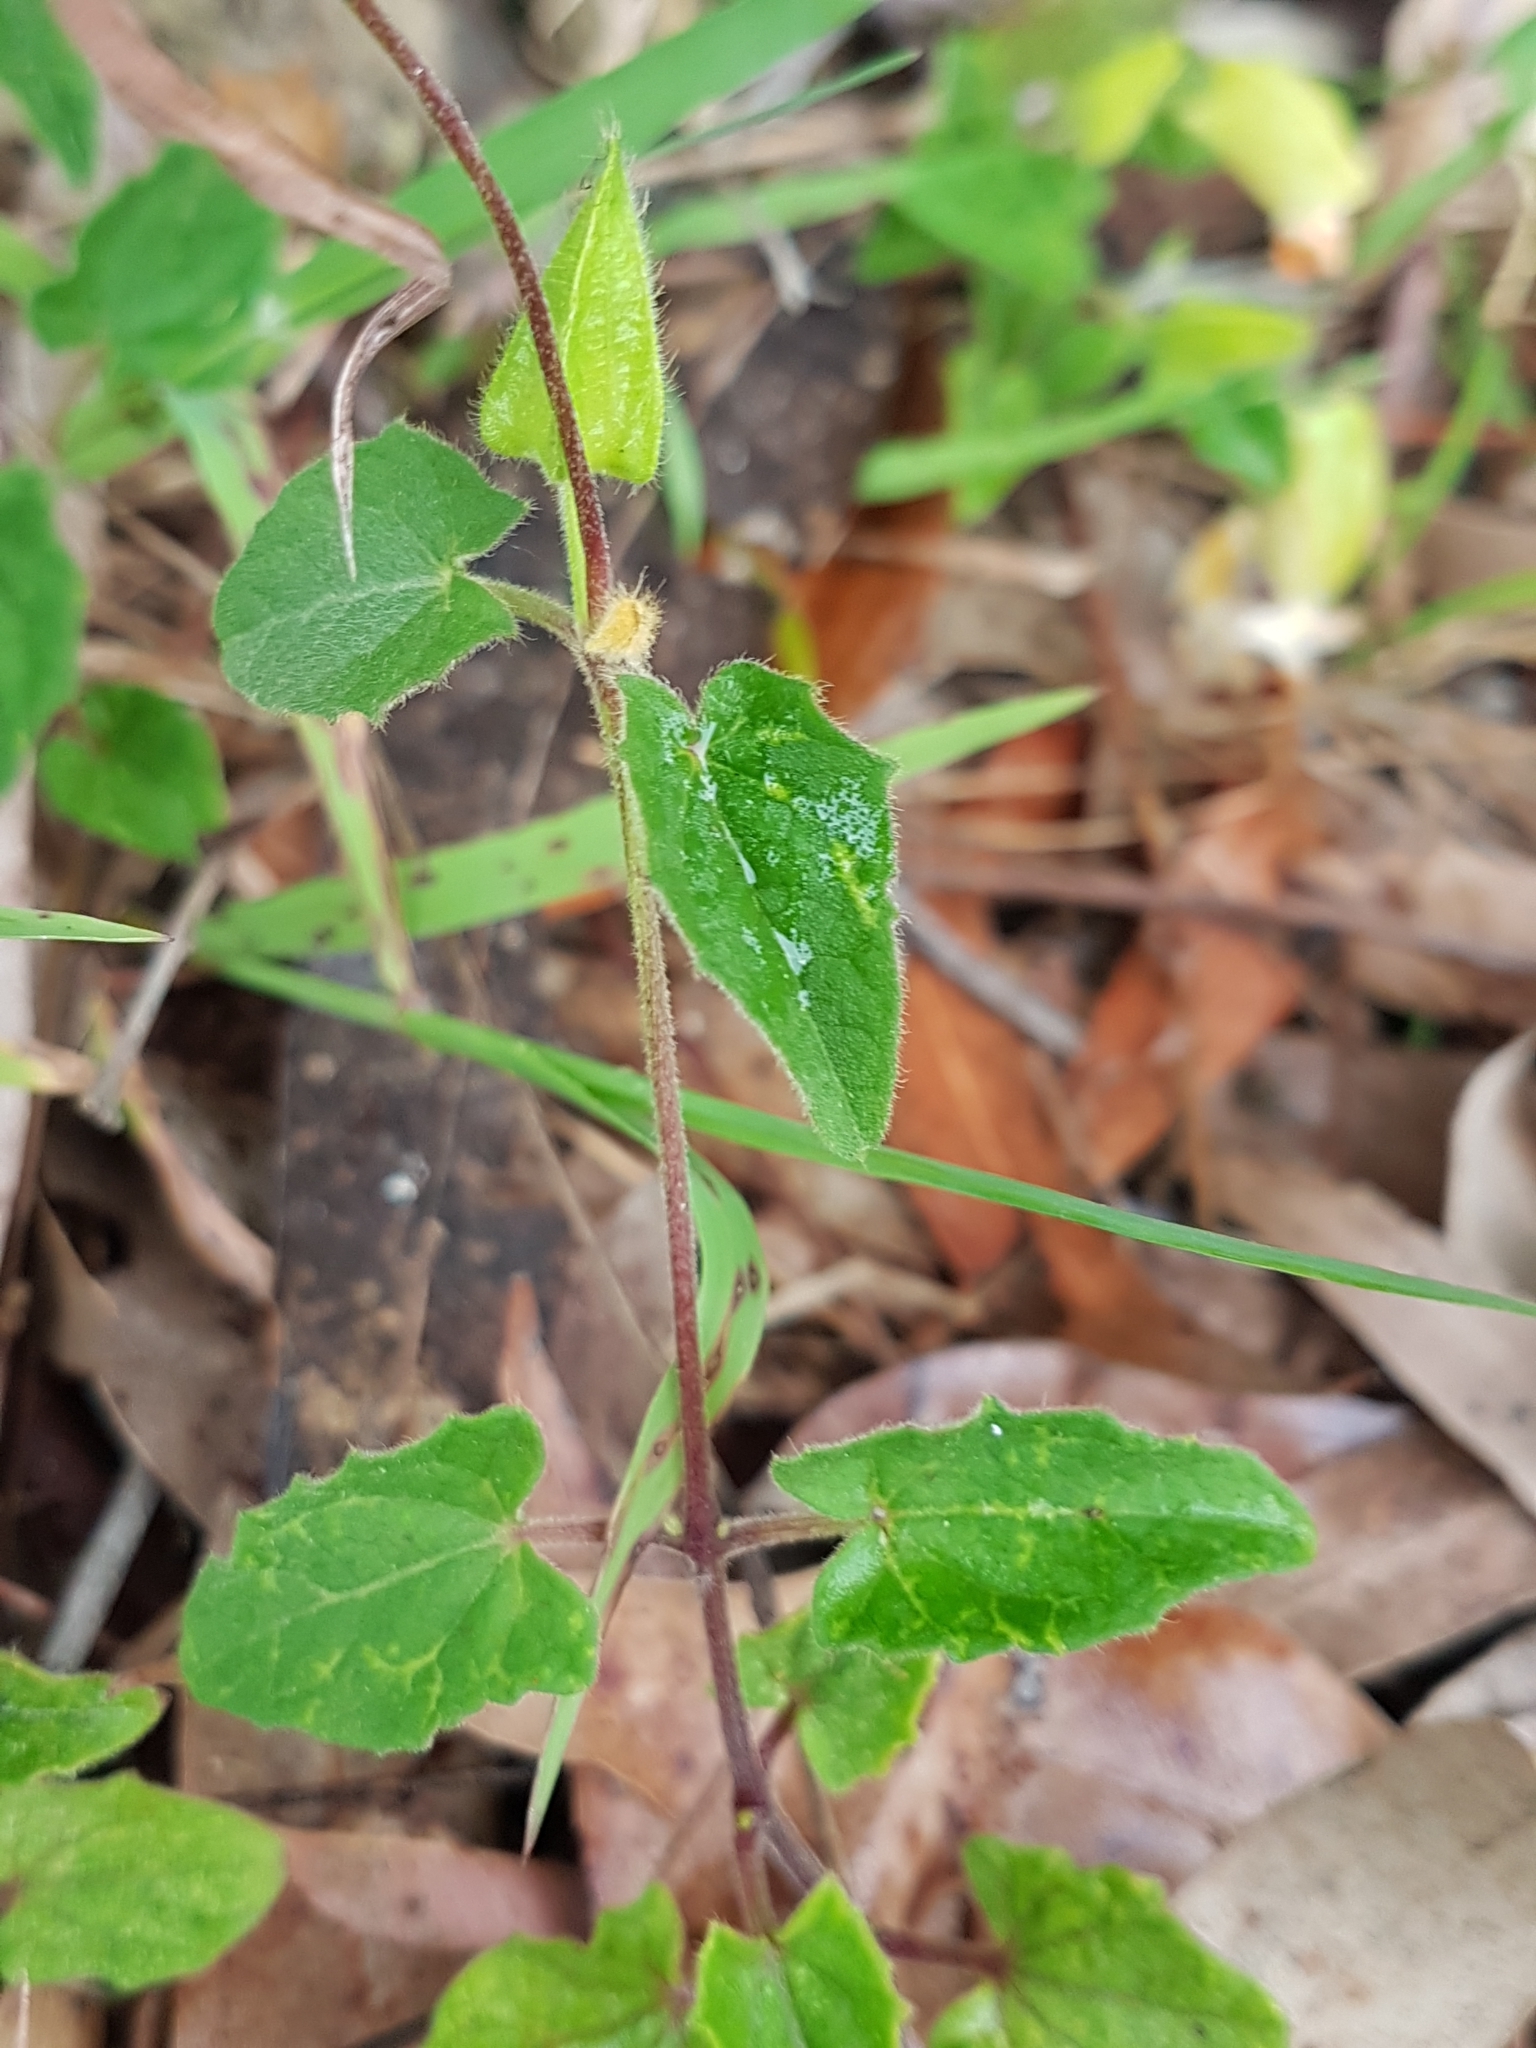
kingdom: Plantae
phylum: Tracheophyta
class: Magnoliopsida
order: Lamiales
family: Acanthaceae
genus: Thunbergia
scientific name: Thunbergia alata
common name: Blackeyed susan vine
